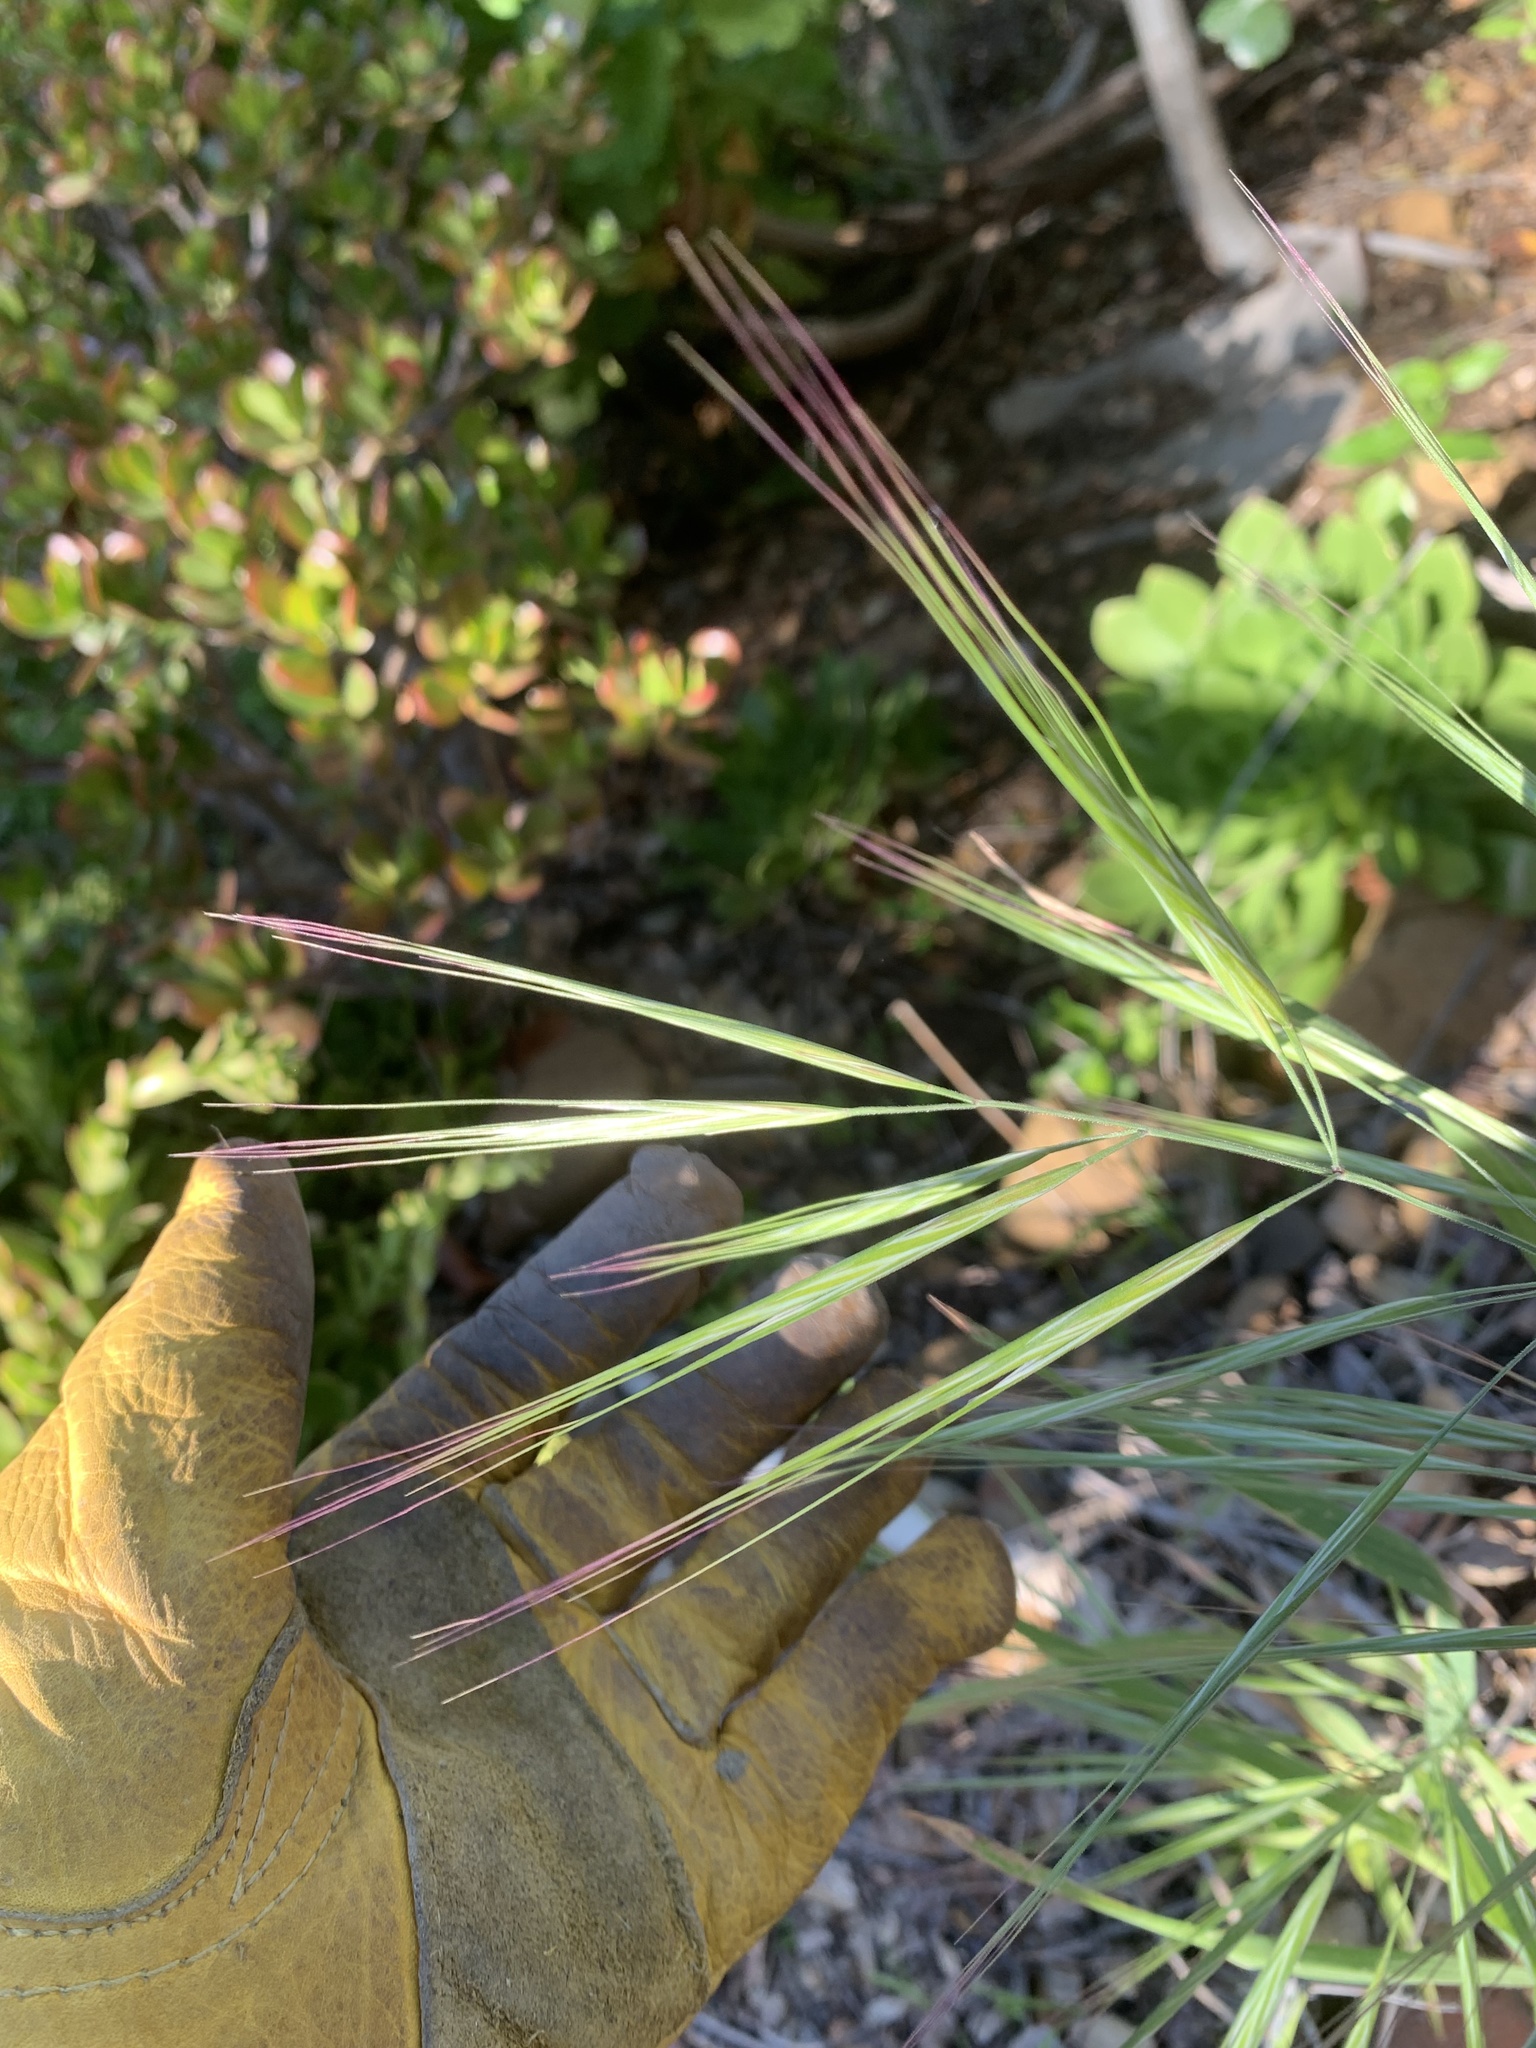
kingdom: Plantae
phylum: Tracheophyta
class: Liliopsida
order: Poales
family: Poaceae
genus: Bromus
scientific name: Bromus diandrus
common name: Ripgut brome
